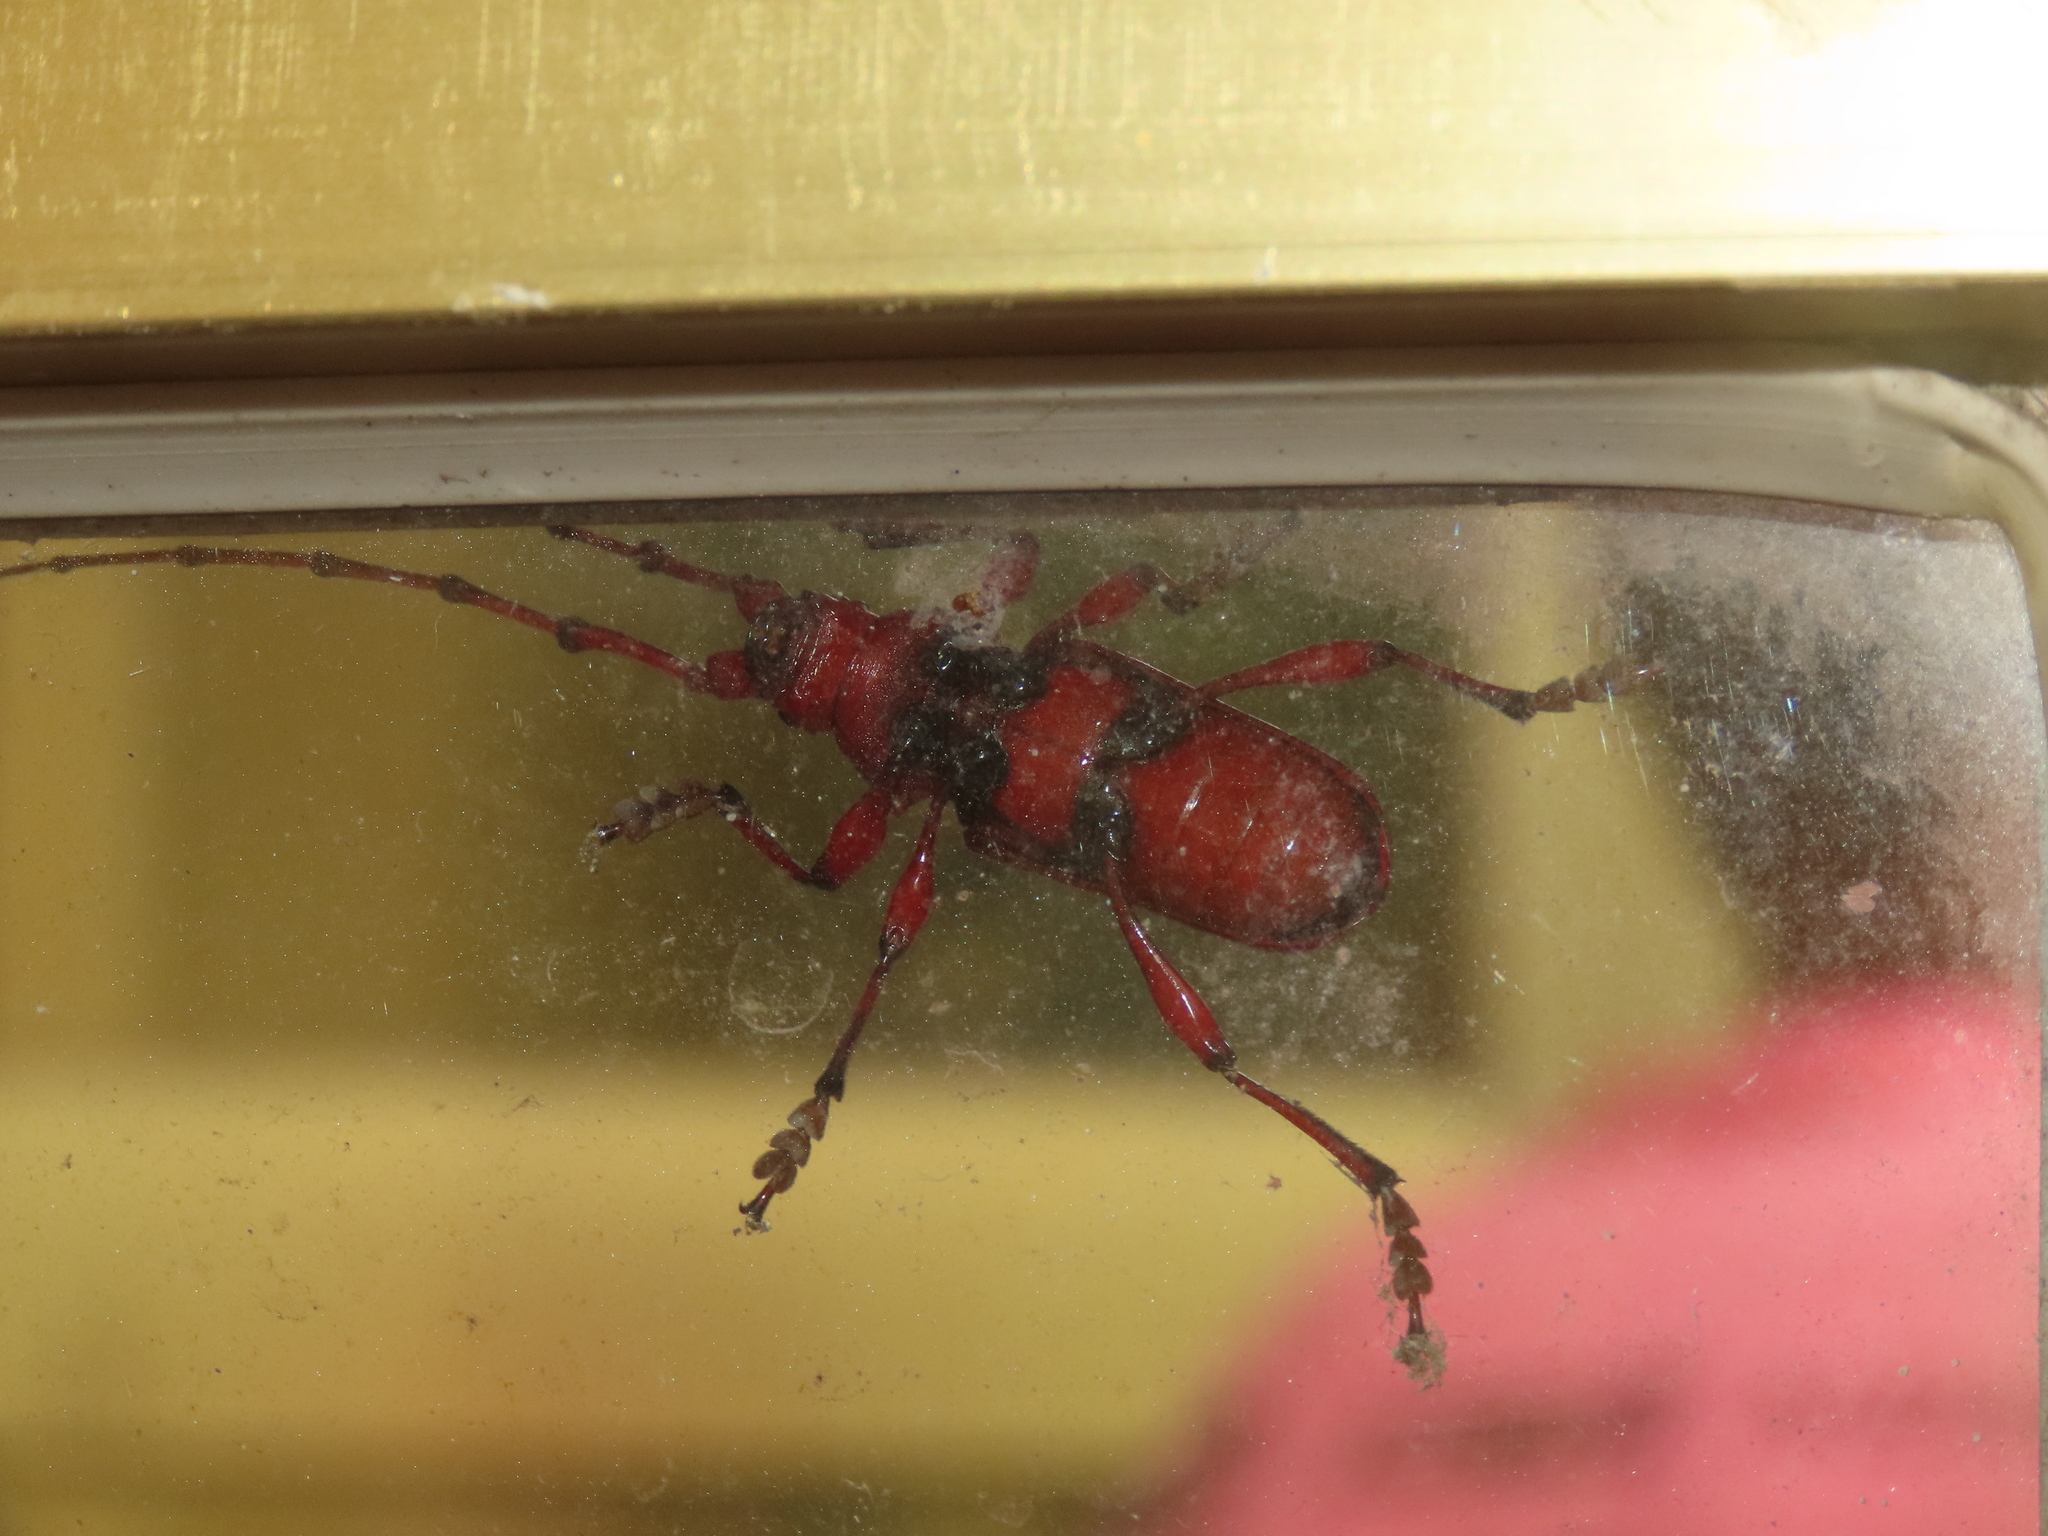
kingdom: Animalia
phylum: Arthropoda
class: Insecta
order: Coleoptera
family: Cerambycidae
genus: Dicelosternus
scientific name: Dicelosternus corallinus
